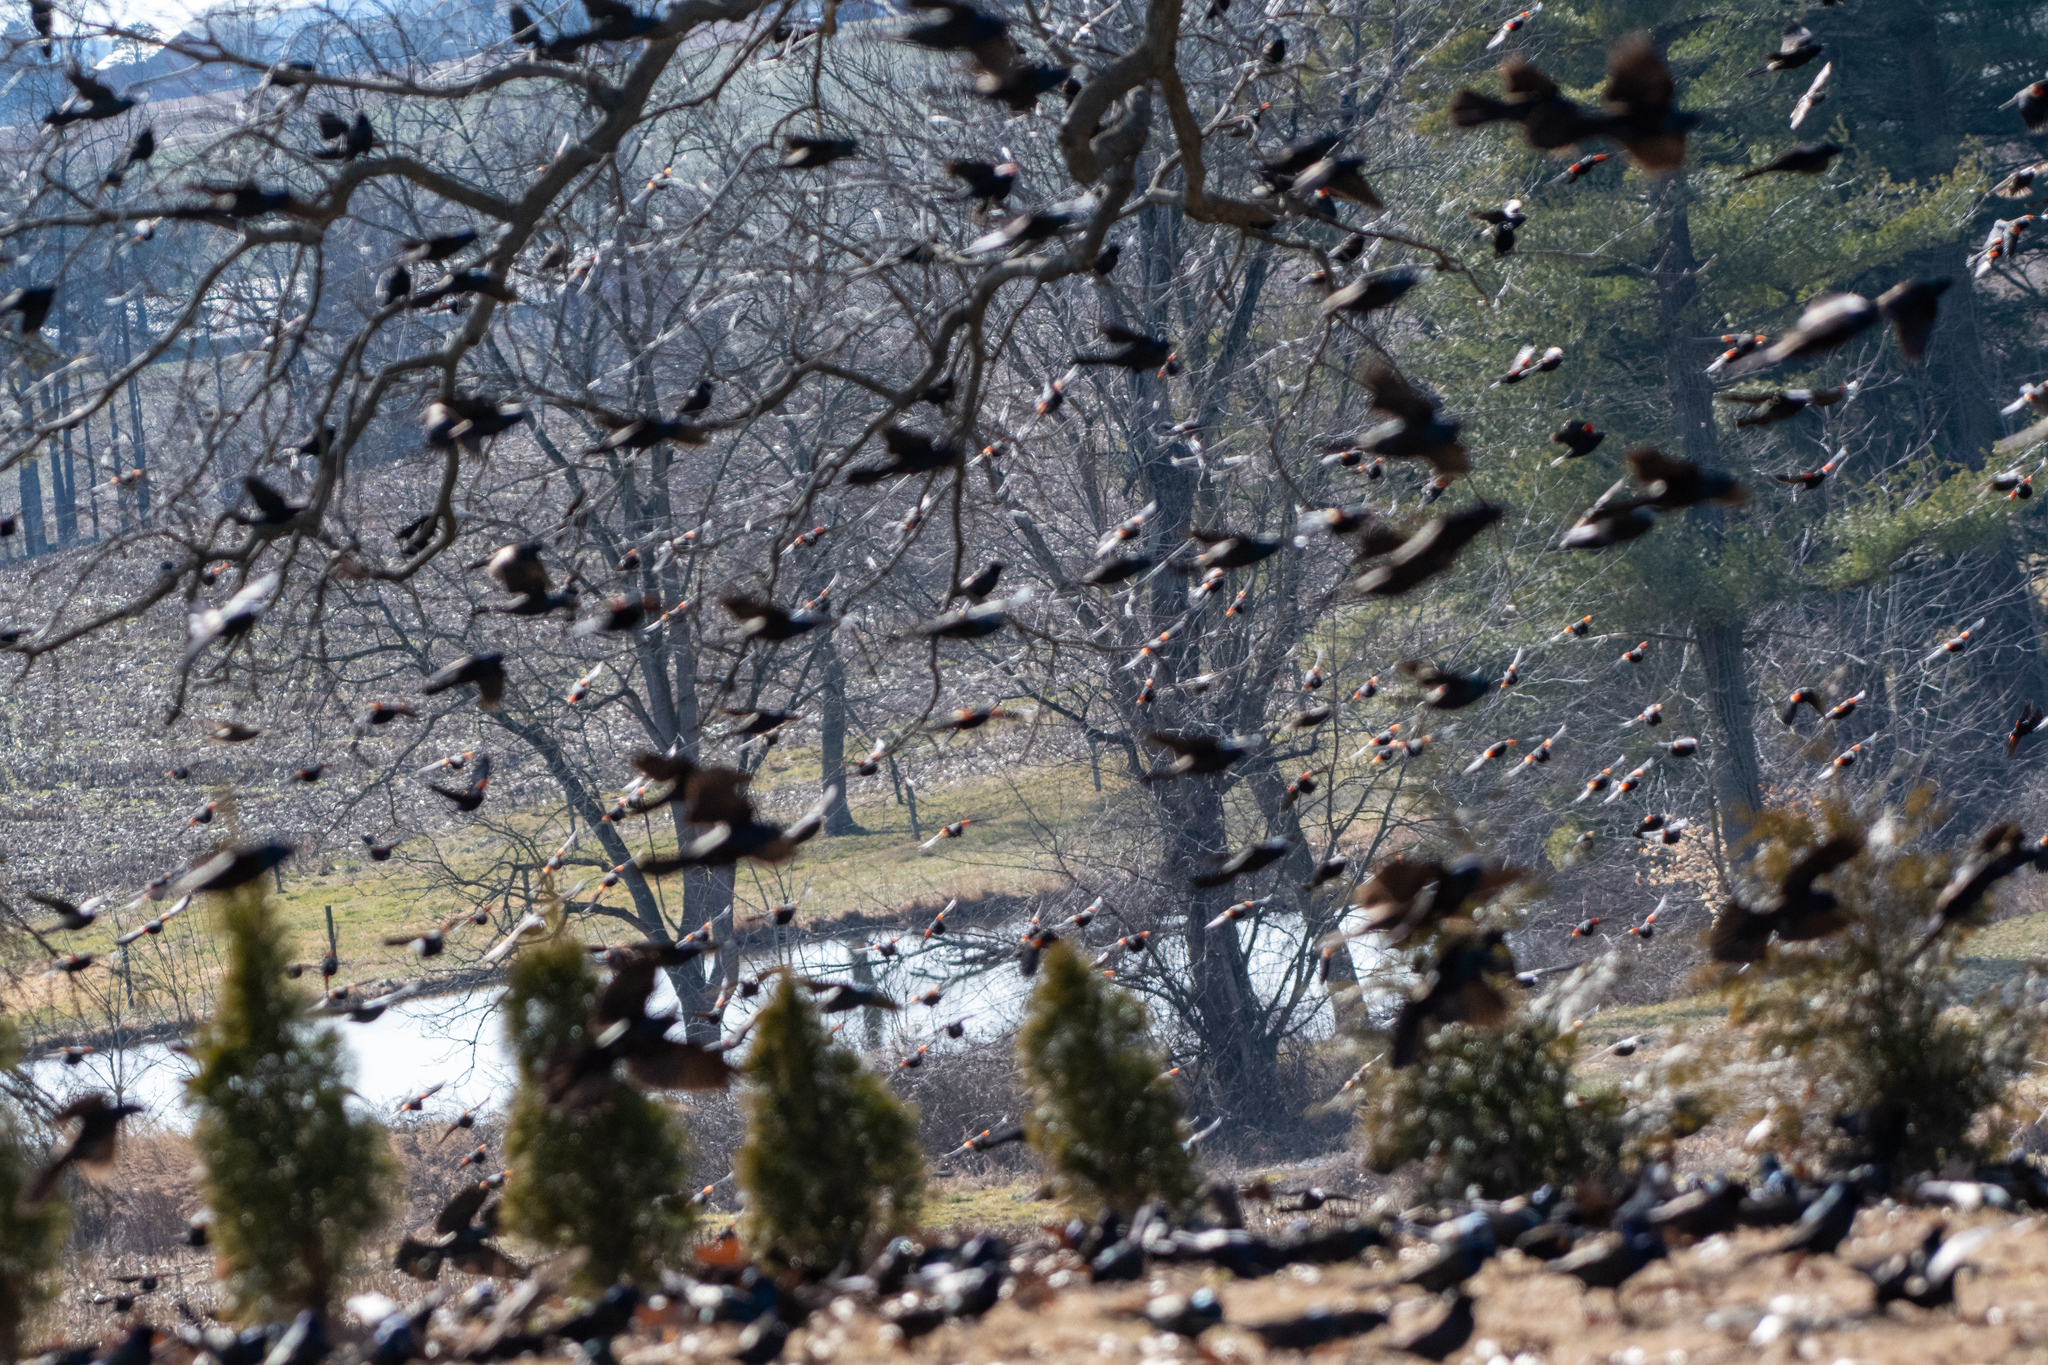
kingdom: Animalia
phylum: Chordata
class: Aves
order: Passeriformes
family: Icteridae
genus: Agelaius
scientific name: Agelaius phoeniceus
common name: Red-winged blackbird
